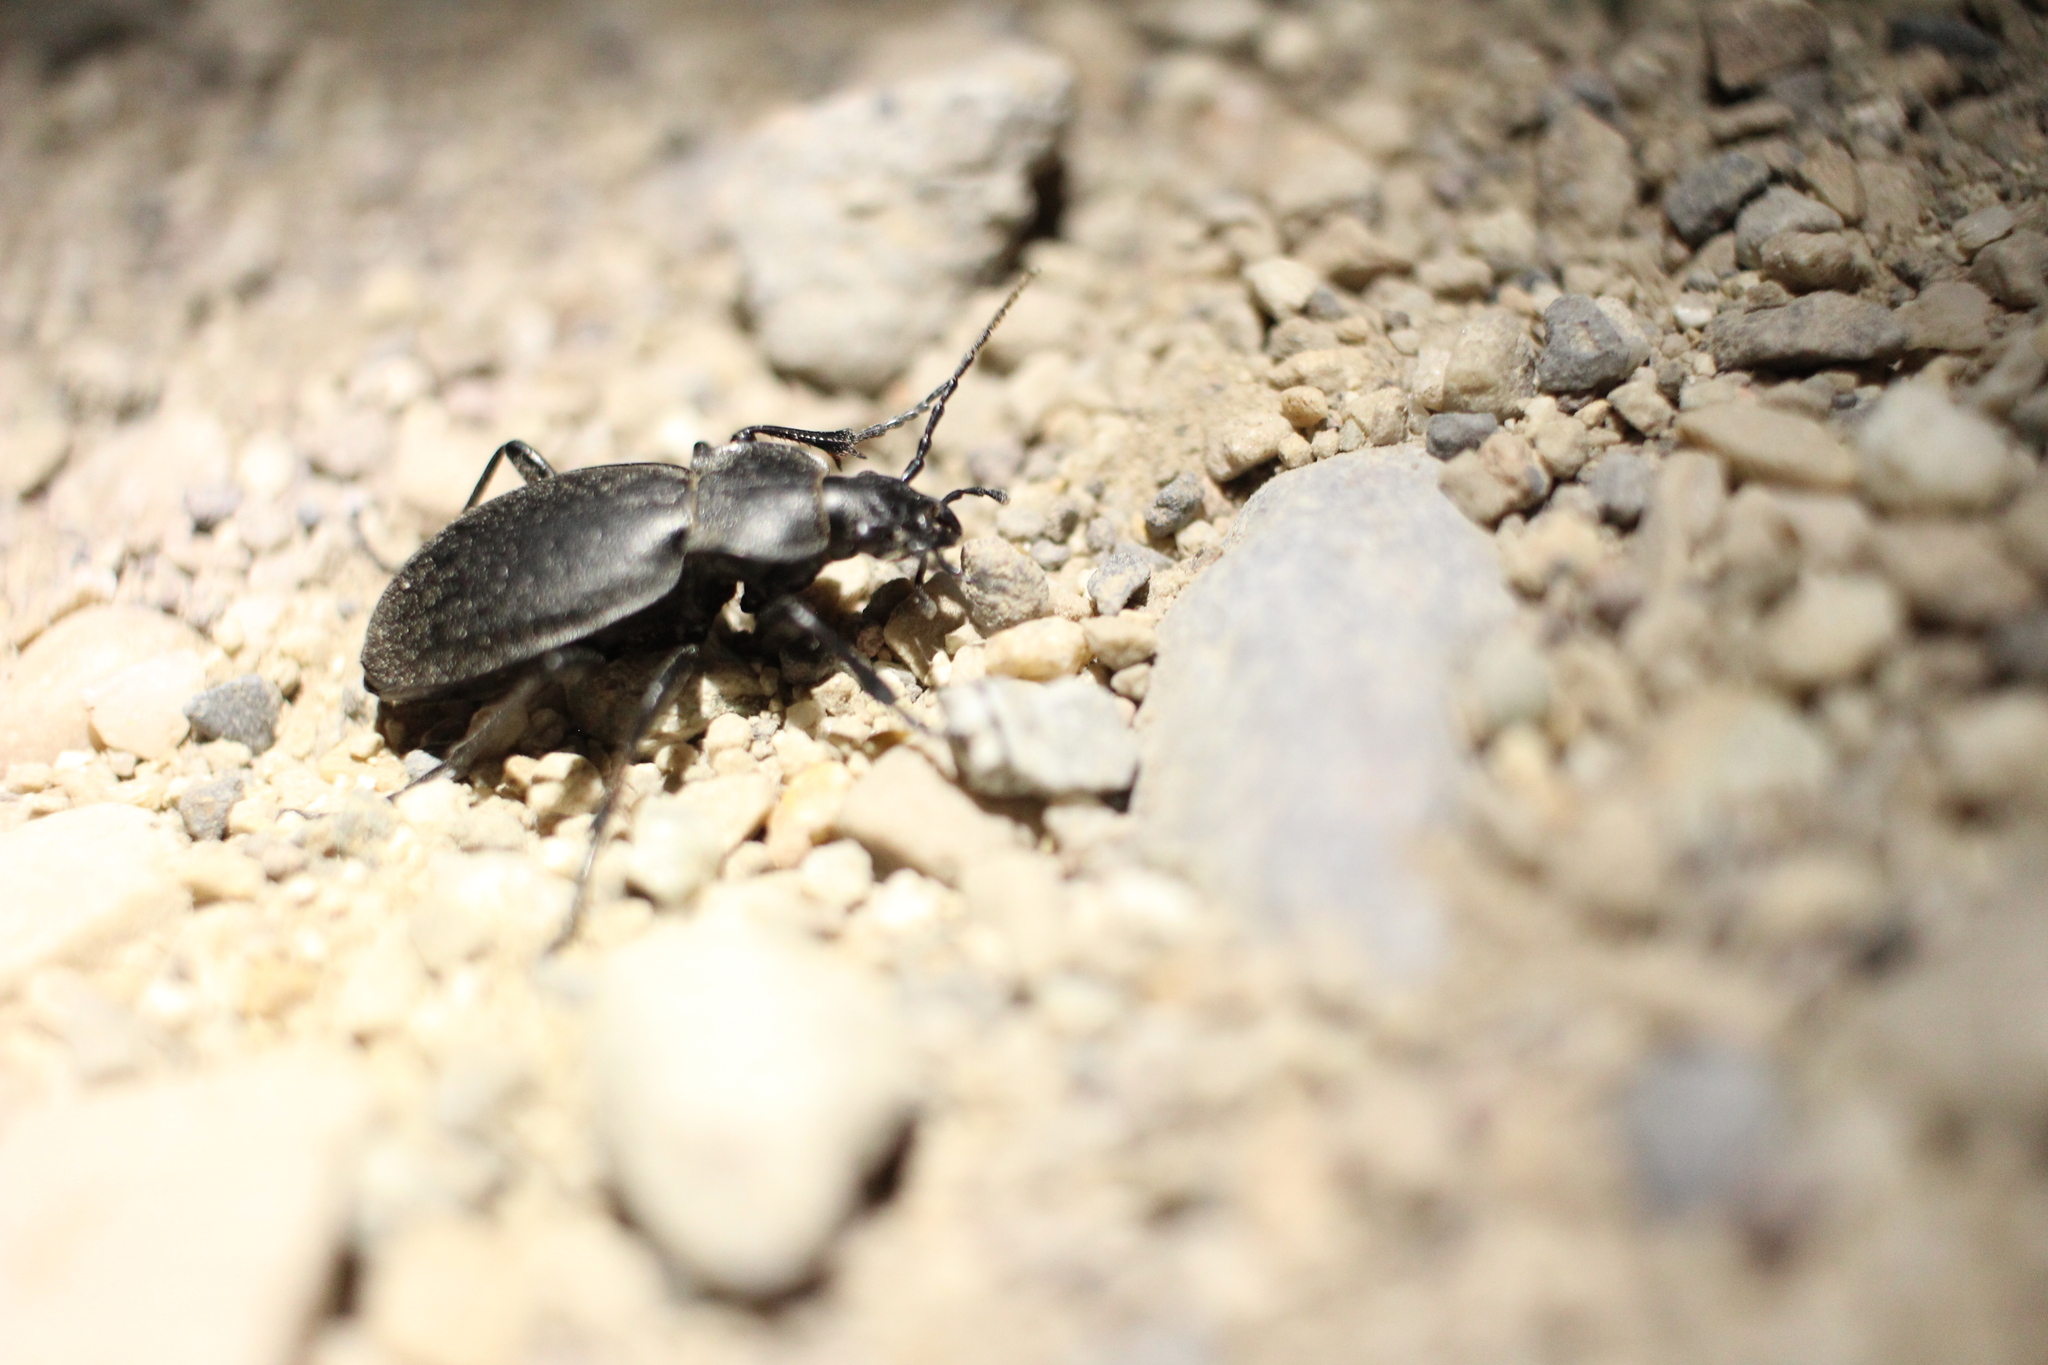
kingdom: Animalia
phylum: Arthropoda
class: Insecta
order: Coleoptera
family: Carabidae
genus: Carabus
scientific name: Carabus taedatus
